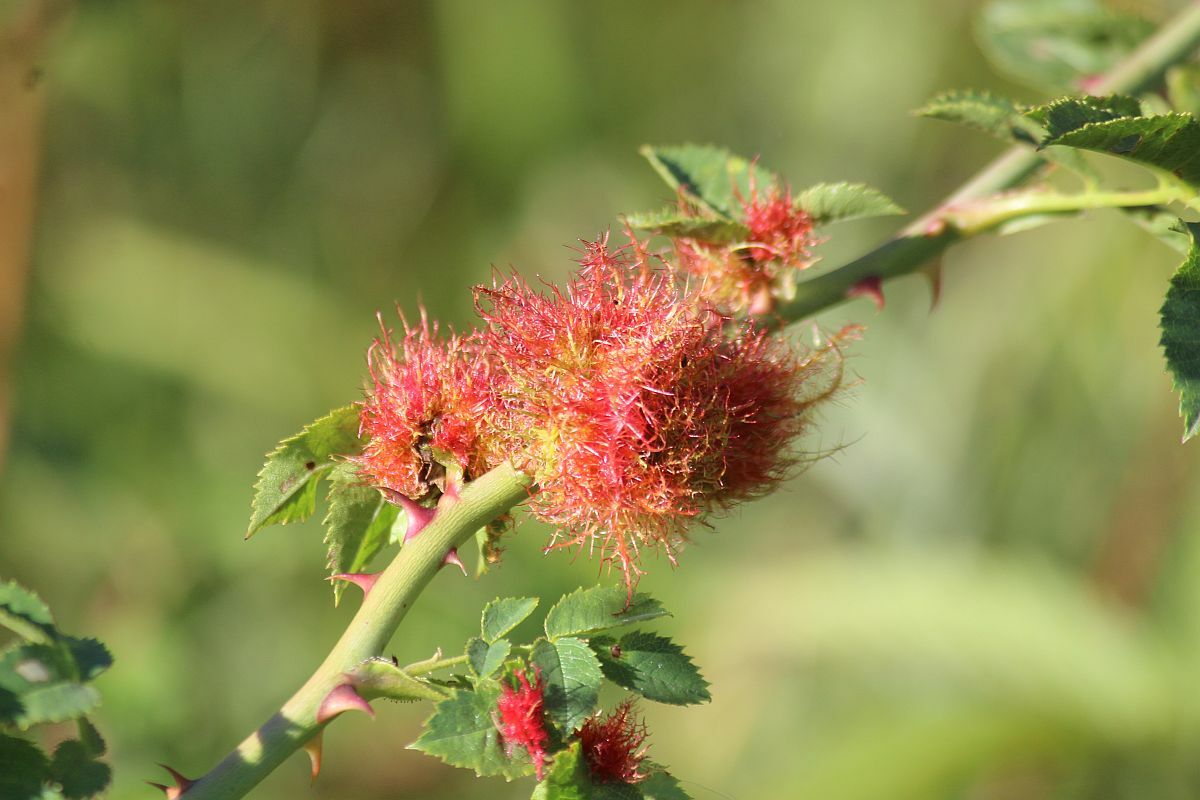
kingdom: Animalia
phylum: Arthropoda
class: Insecta
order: Hymenoptera
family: Cynipidae
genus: Diplolepis
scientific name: Diplolepis rosae
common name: Bedeguar gall
